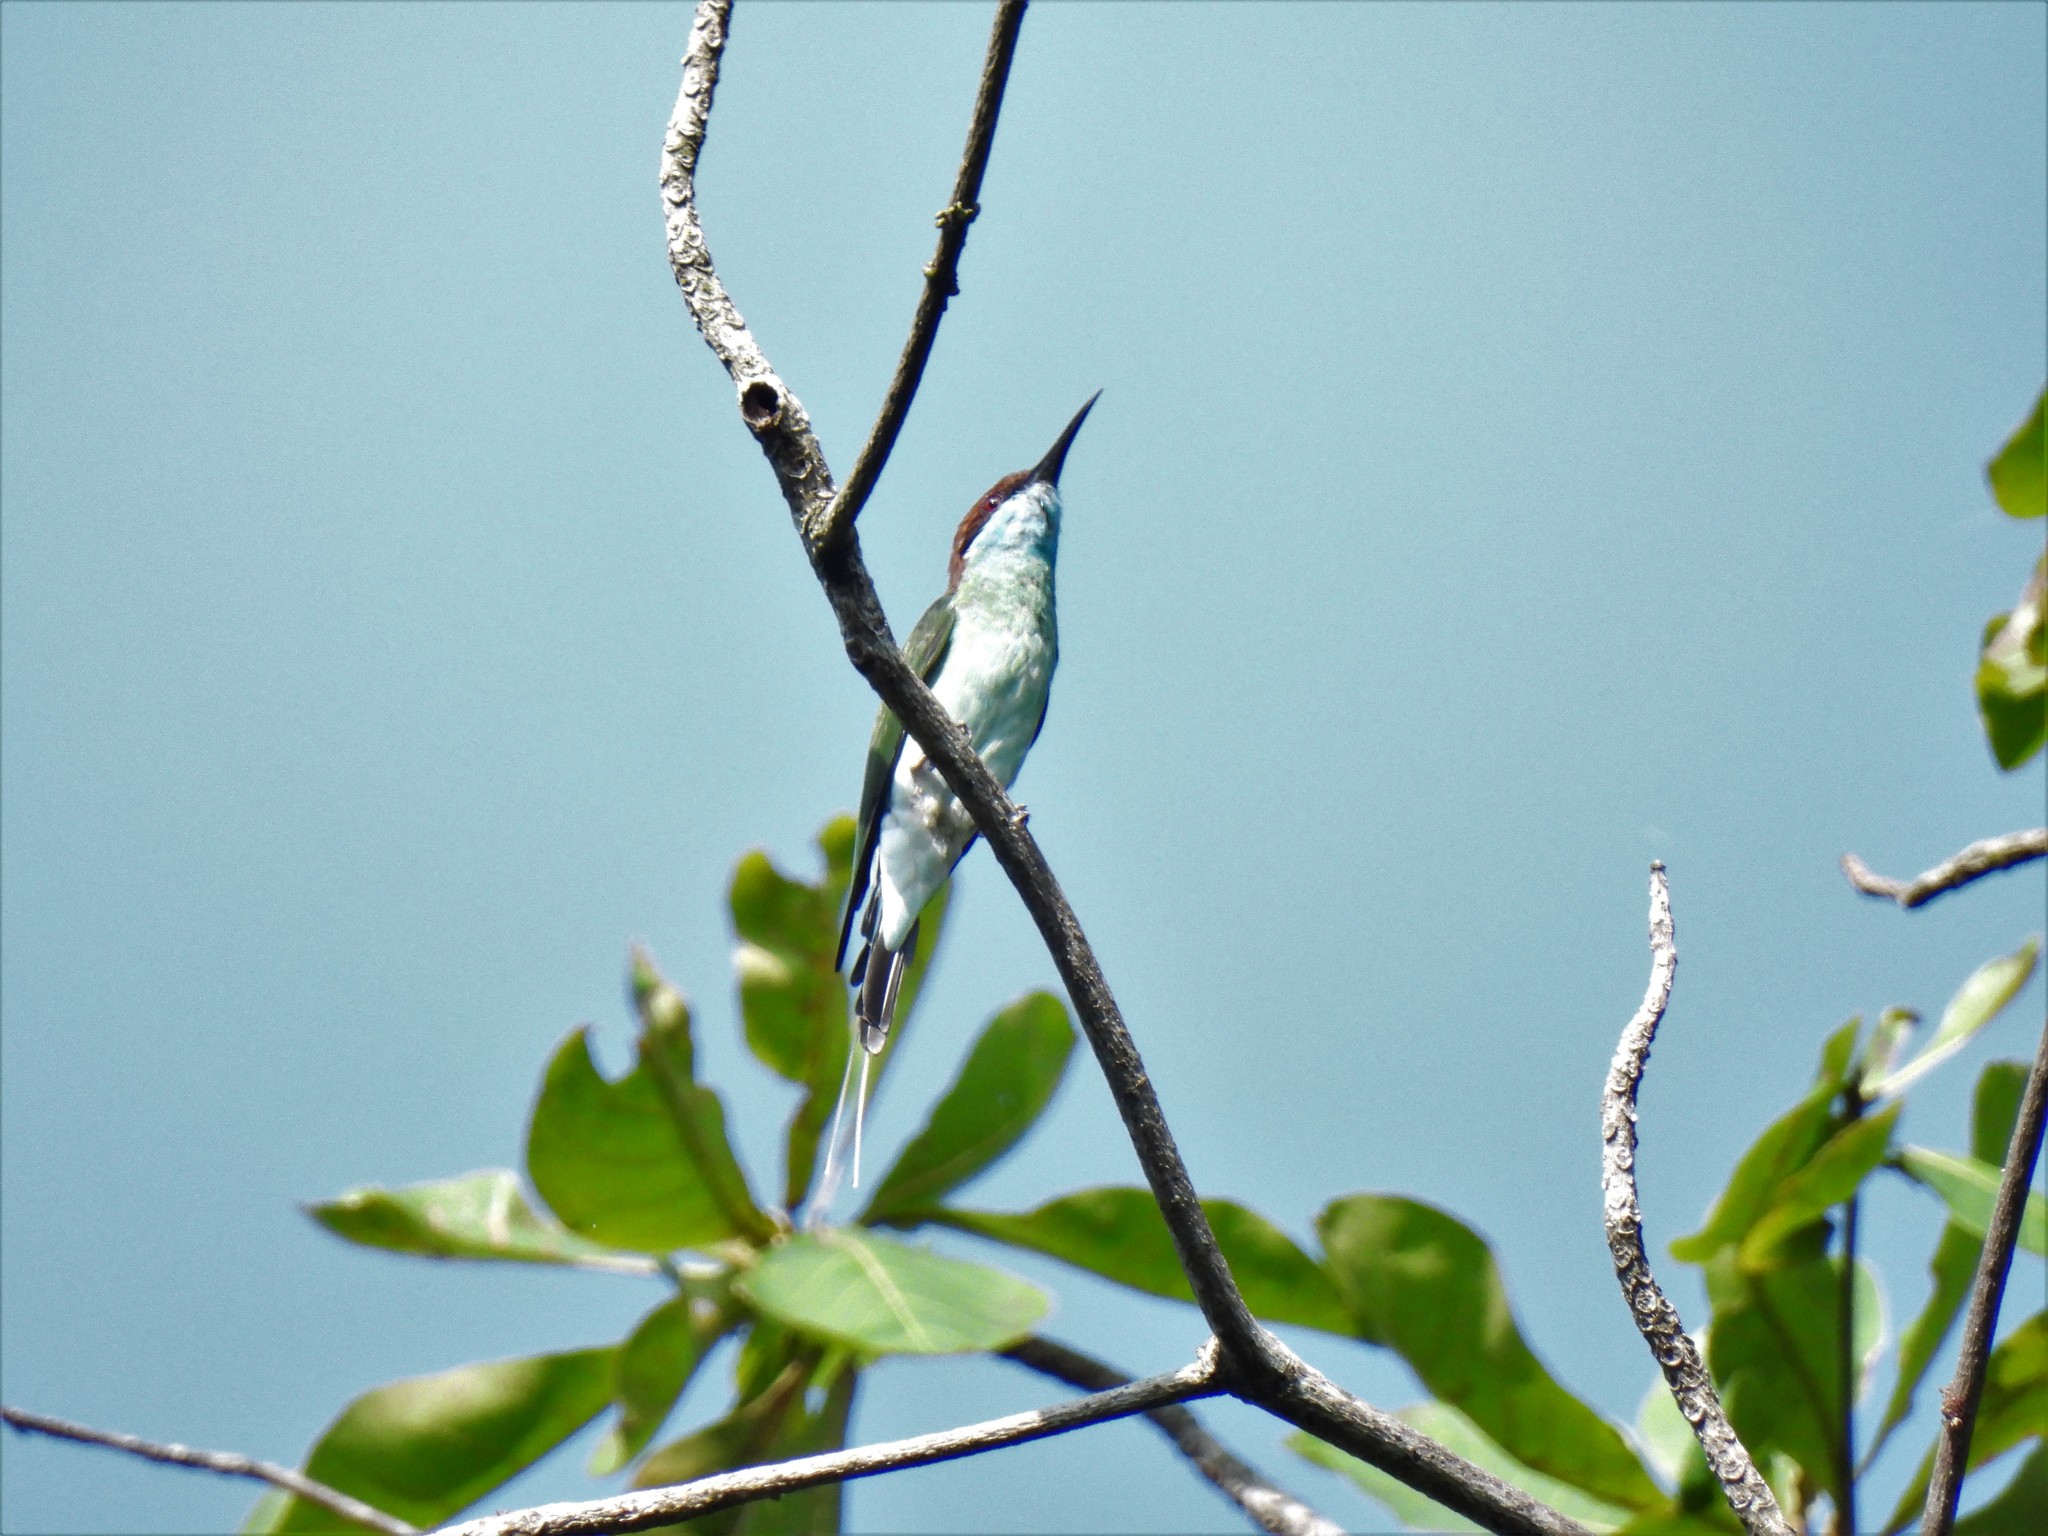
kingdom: Animalia
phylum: Chordata
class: Aves
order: Coraciiformes
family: Meropidae
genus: Merops
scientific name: Merops viridis
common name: Blue-throated bee-eater
